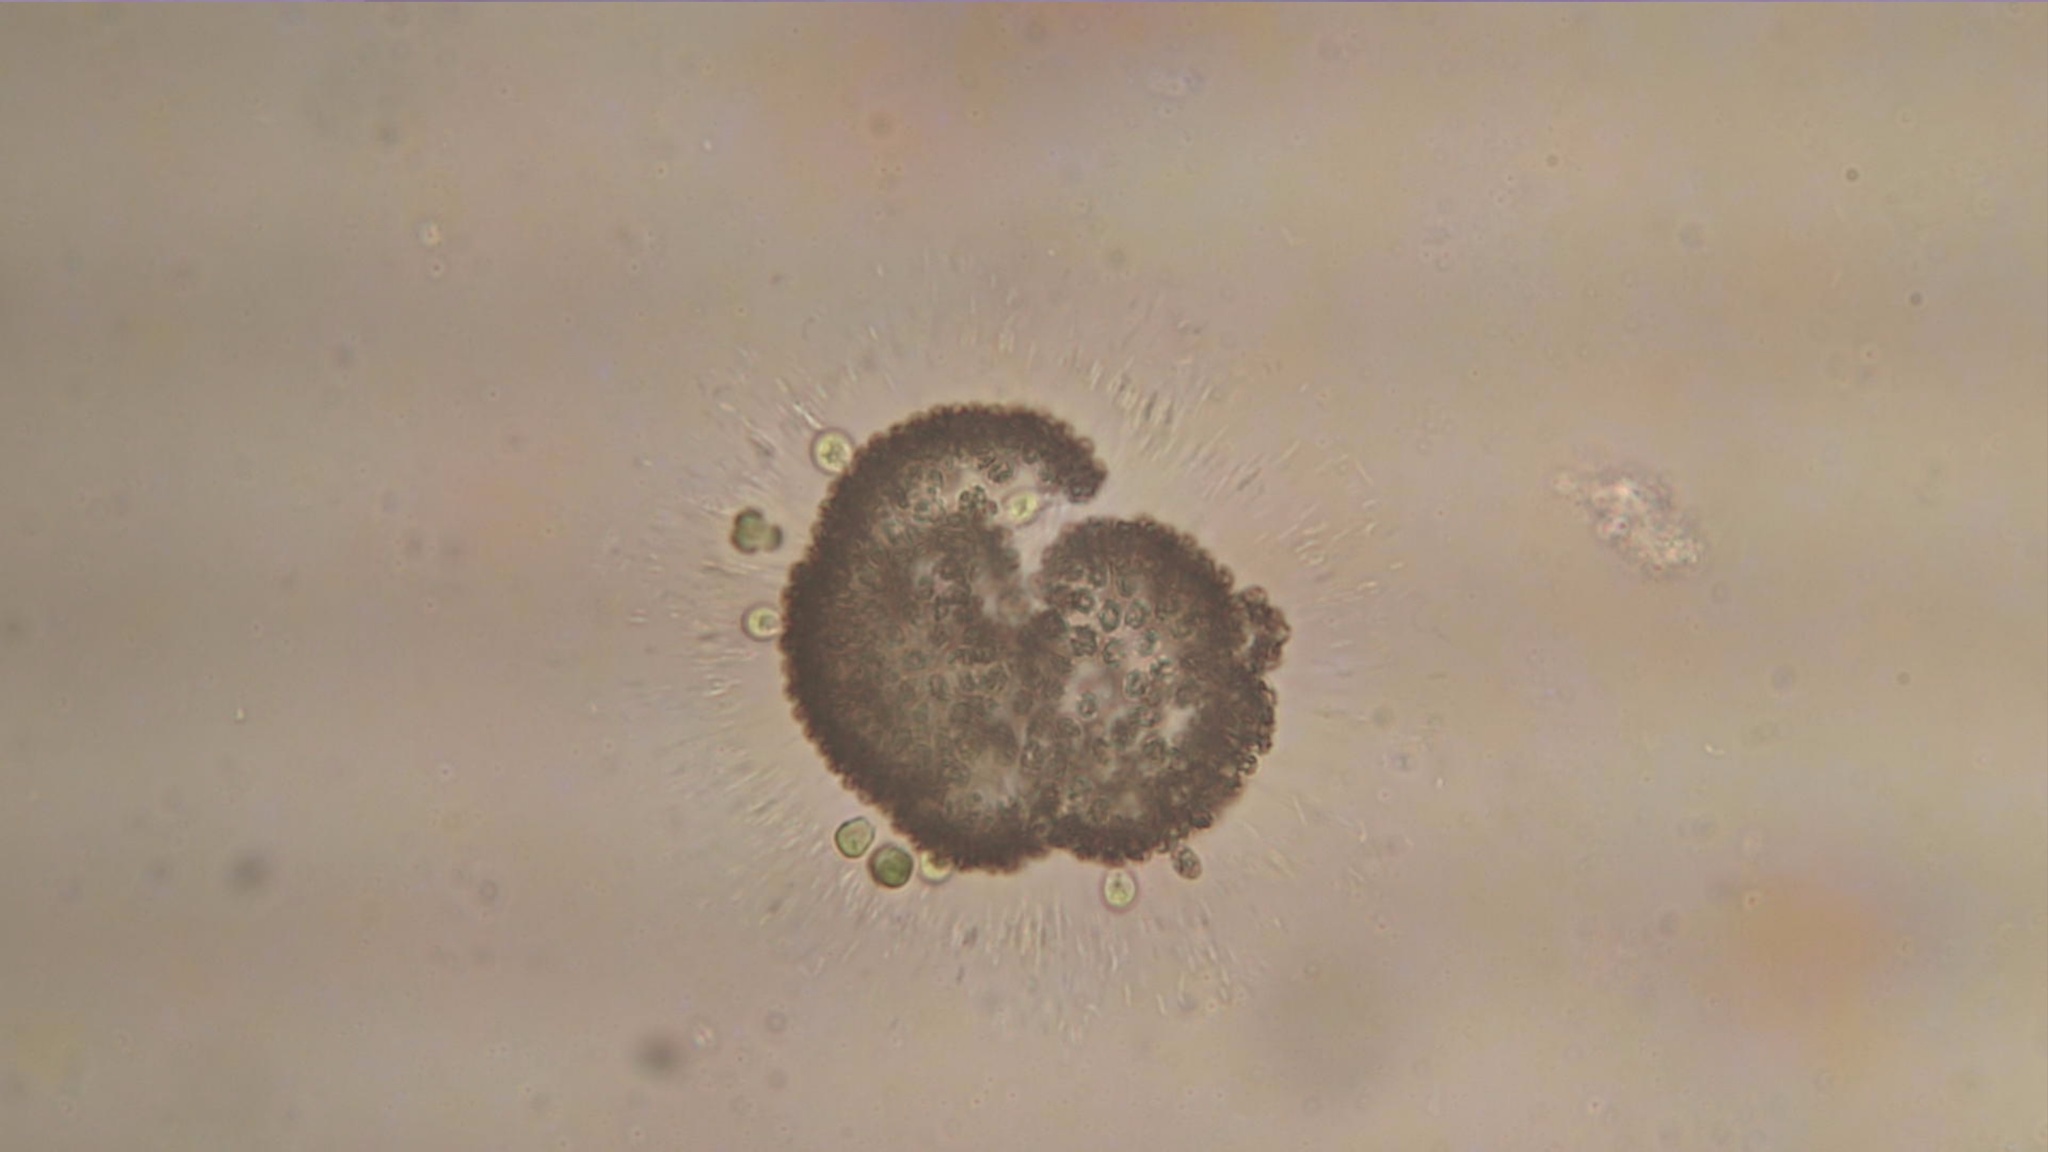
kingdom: Bacteria
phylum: Cyanobacteria
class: Cyanobacteriia
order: Synechococcales
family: Coelosphaeriaceae
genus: Woronichinia
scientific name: Woronichinia naegeliana
